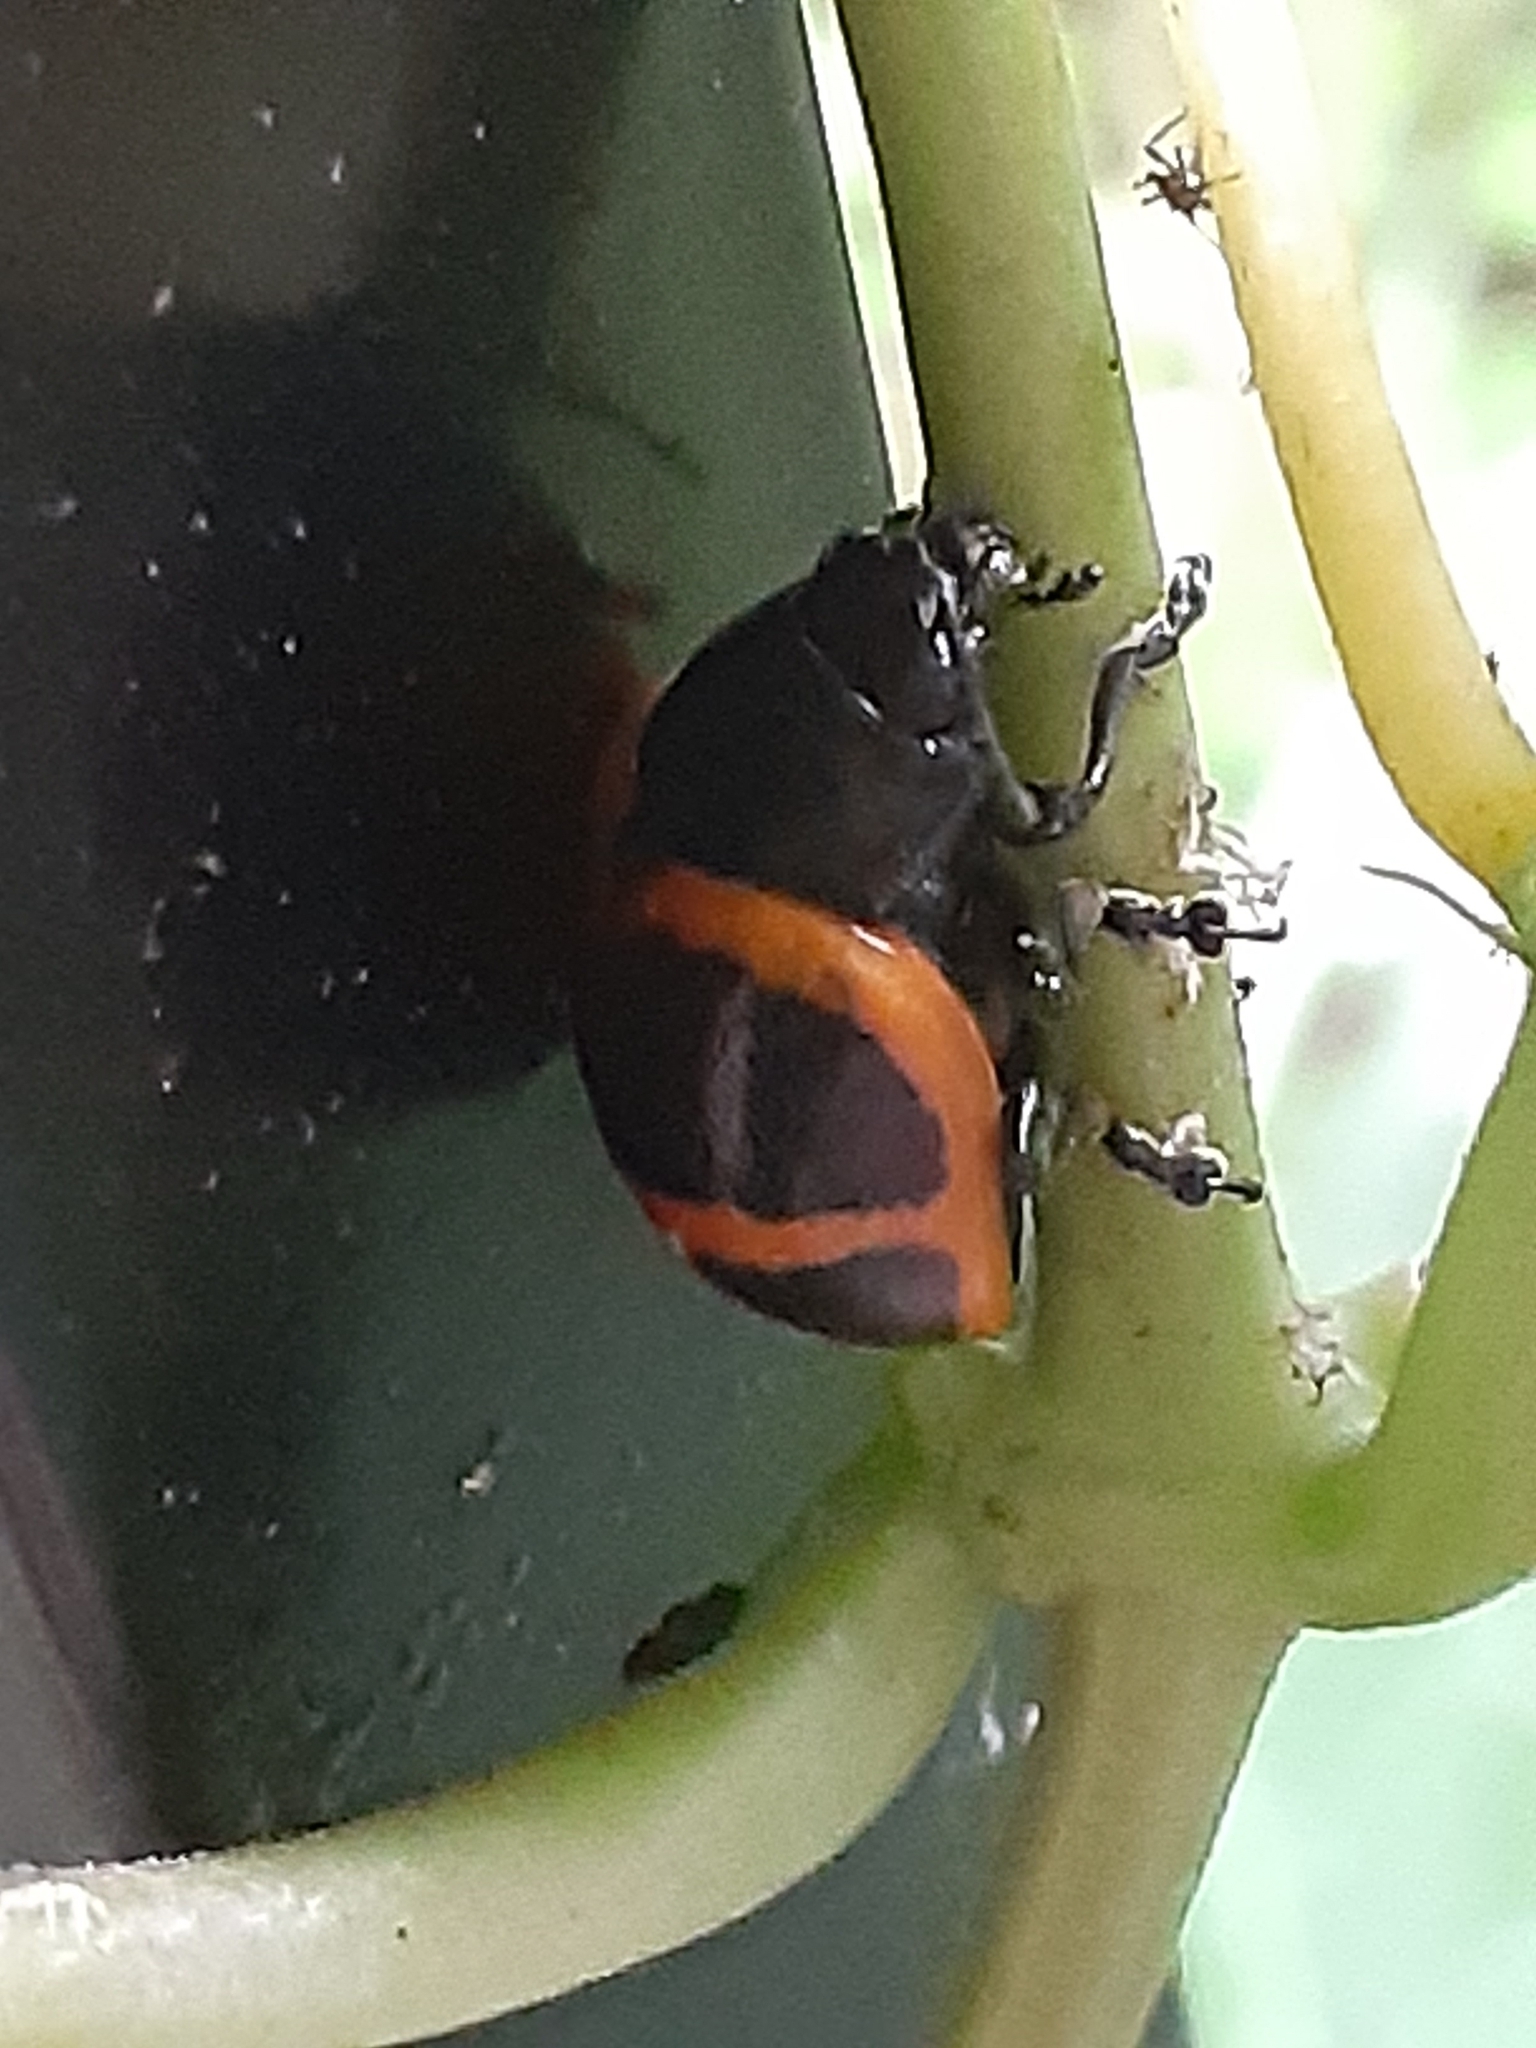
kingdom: Animalia
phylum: Arthropoda
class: Insecta
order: Coleoptera
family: Chrysomelidae
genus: Labidomera
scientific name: Labidomera clivicollis
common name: Swamp milkweed leaf beetle
